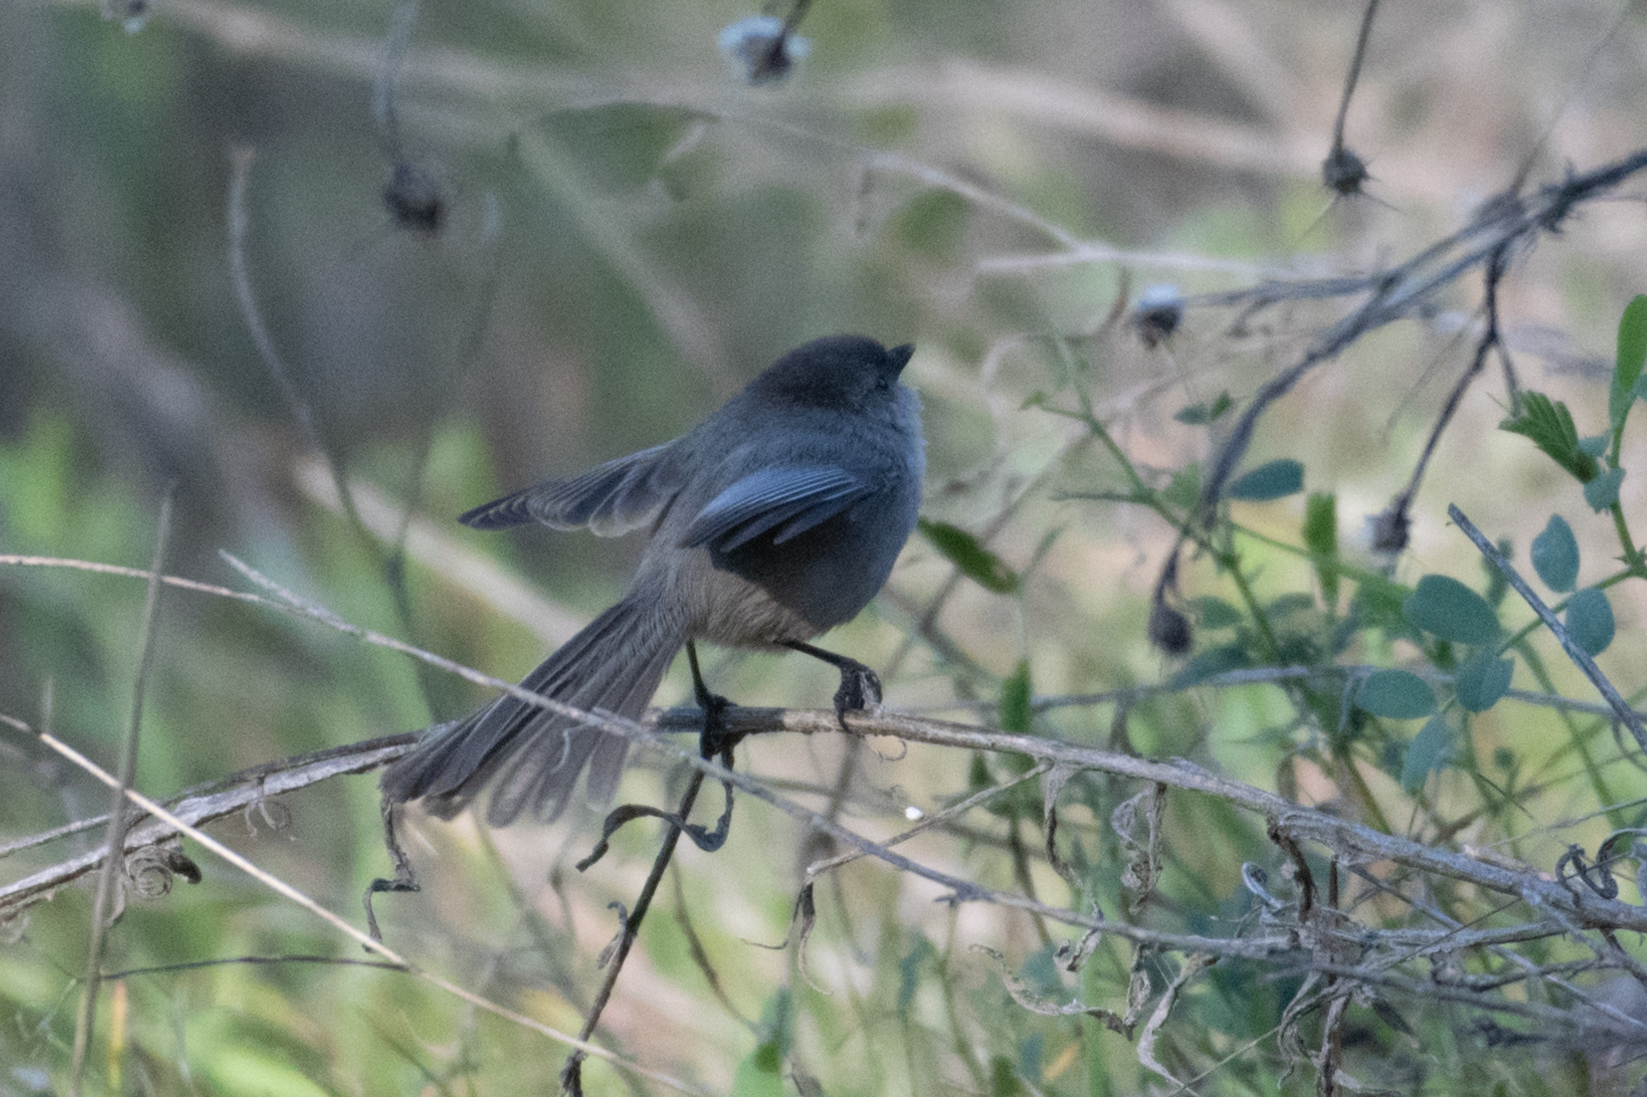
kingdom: Animalia
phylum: Chordata
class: Aves
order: Passeriformes
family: Aegithalidae
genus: Psaltriparus
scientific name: Psaltriparus minimus
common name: American bushtit
